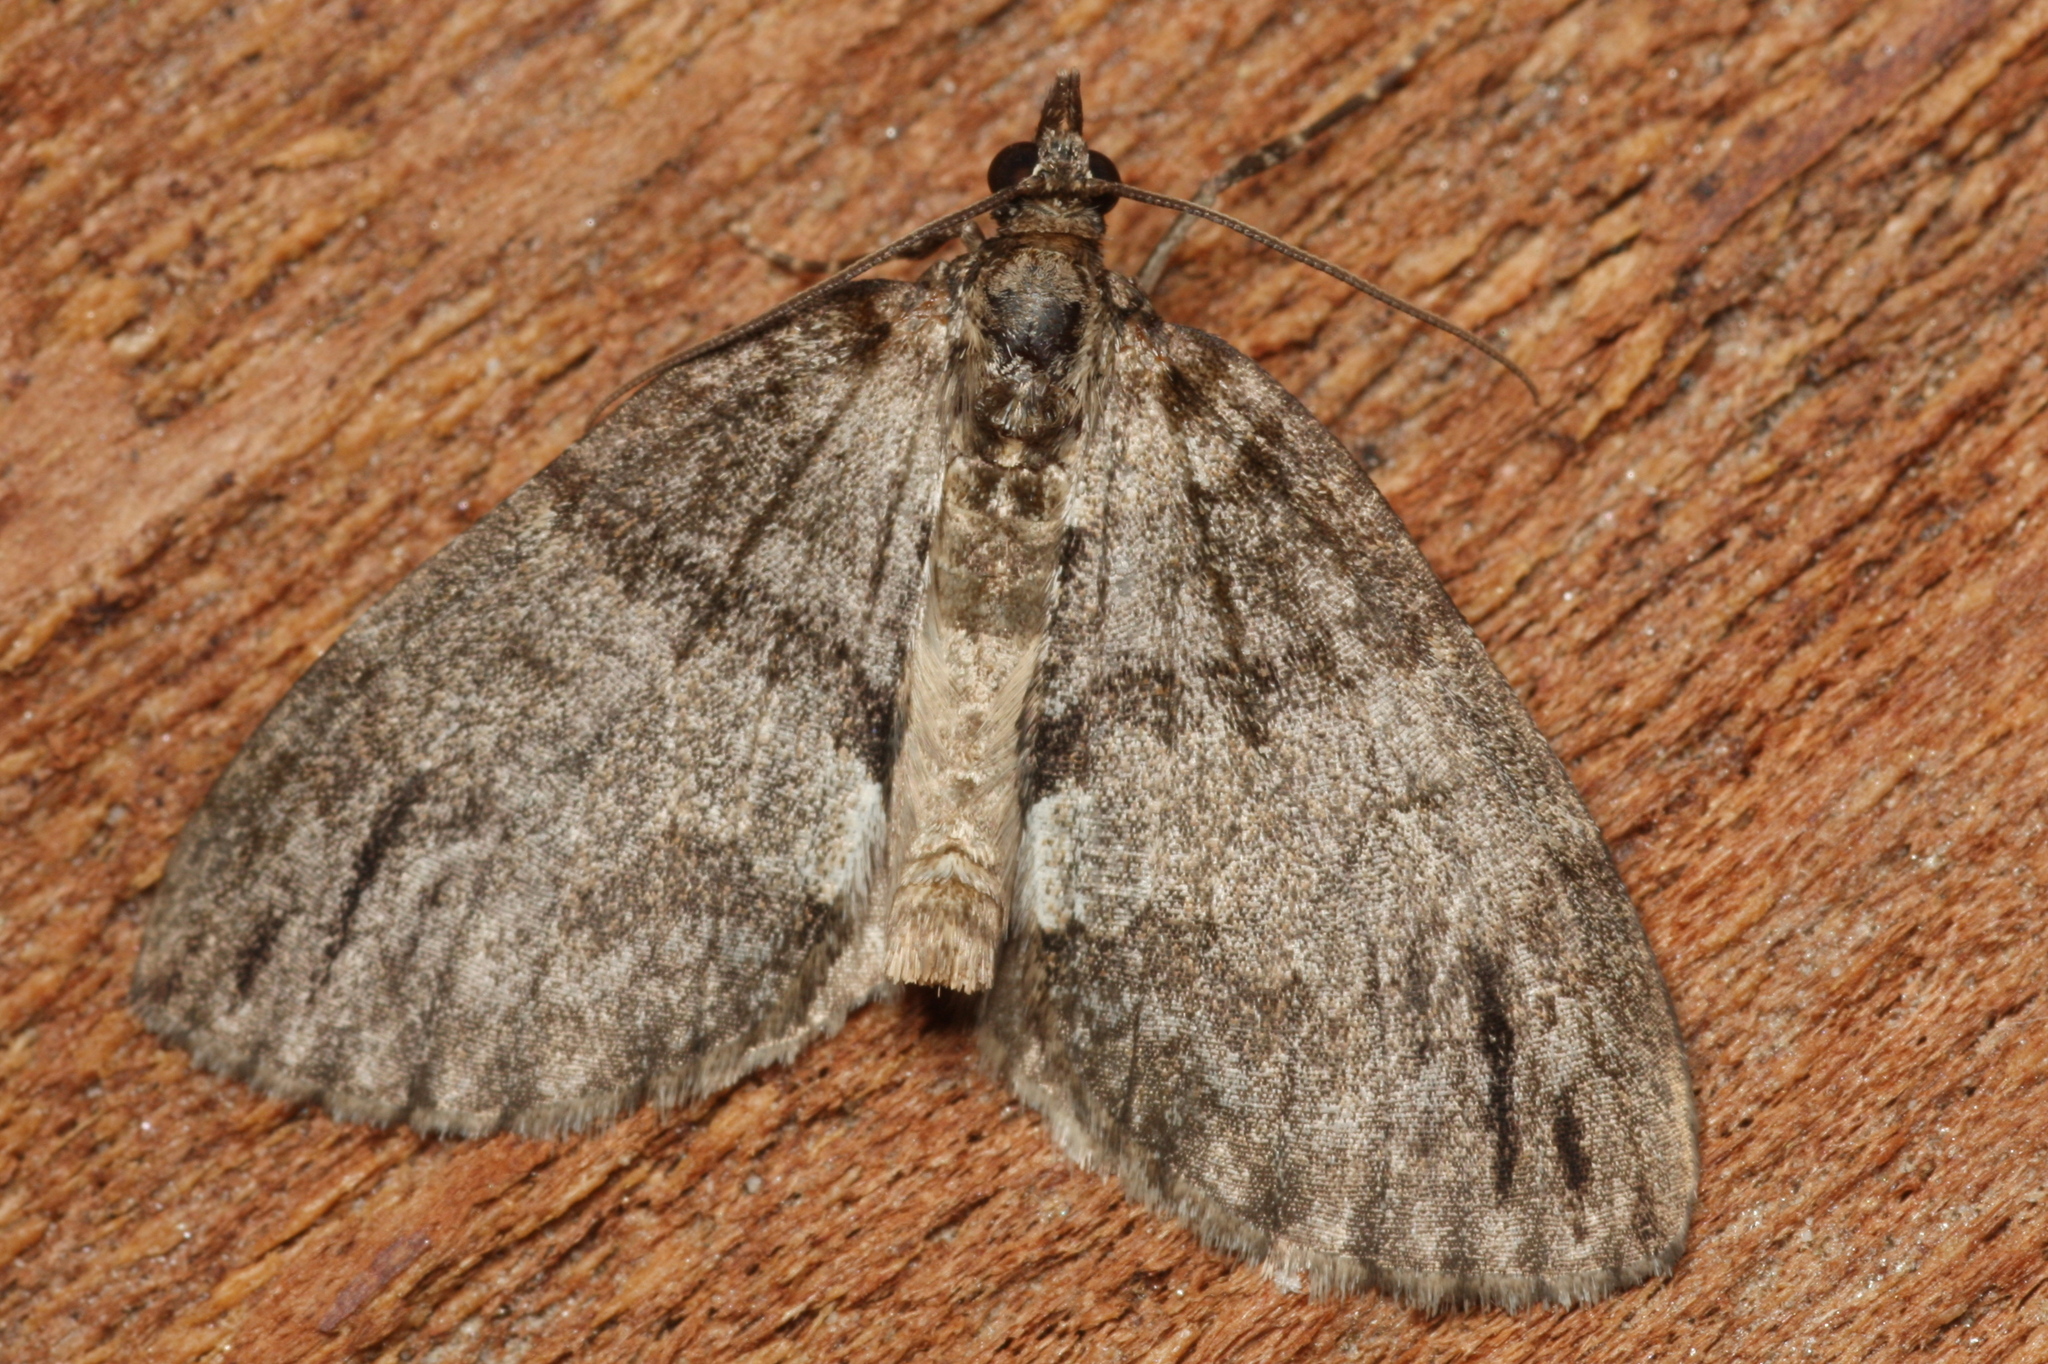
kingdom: Animalia
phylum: Arthropoda
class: Insecta
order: Lepidoptera
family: Geometridae
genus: Hydriomena
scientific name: Hydriomena impluviata
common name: May highflyer
